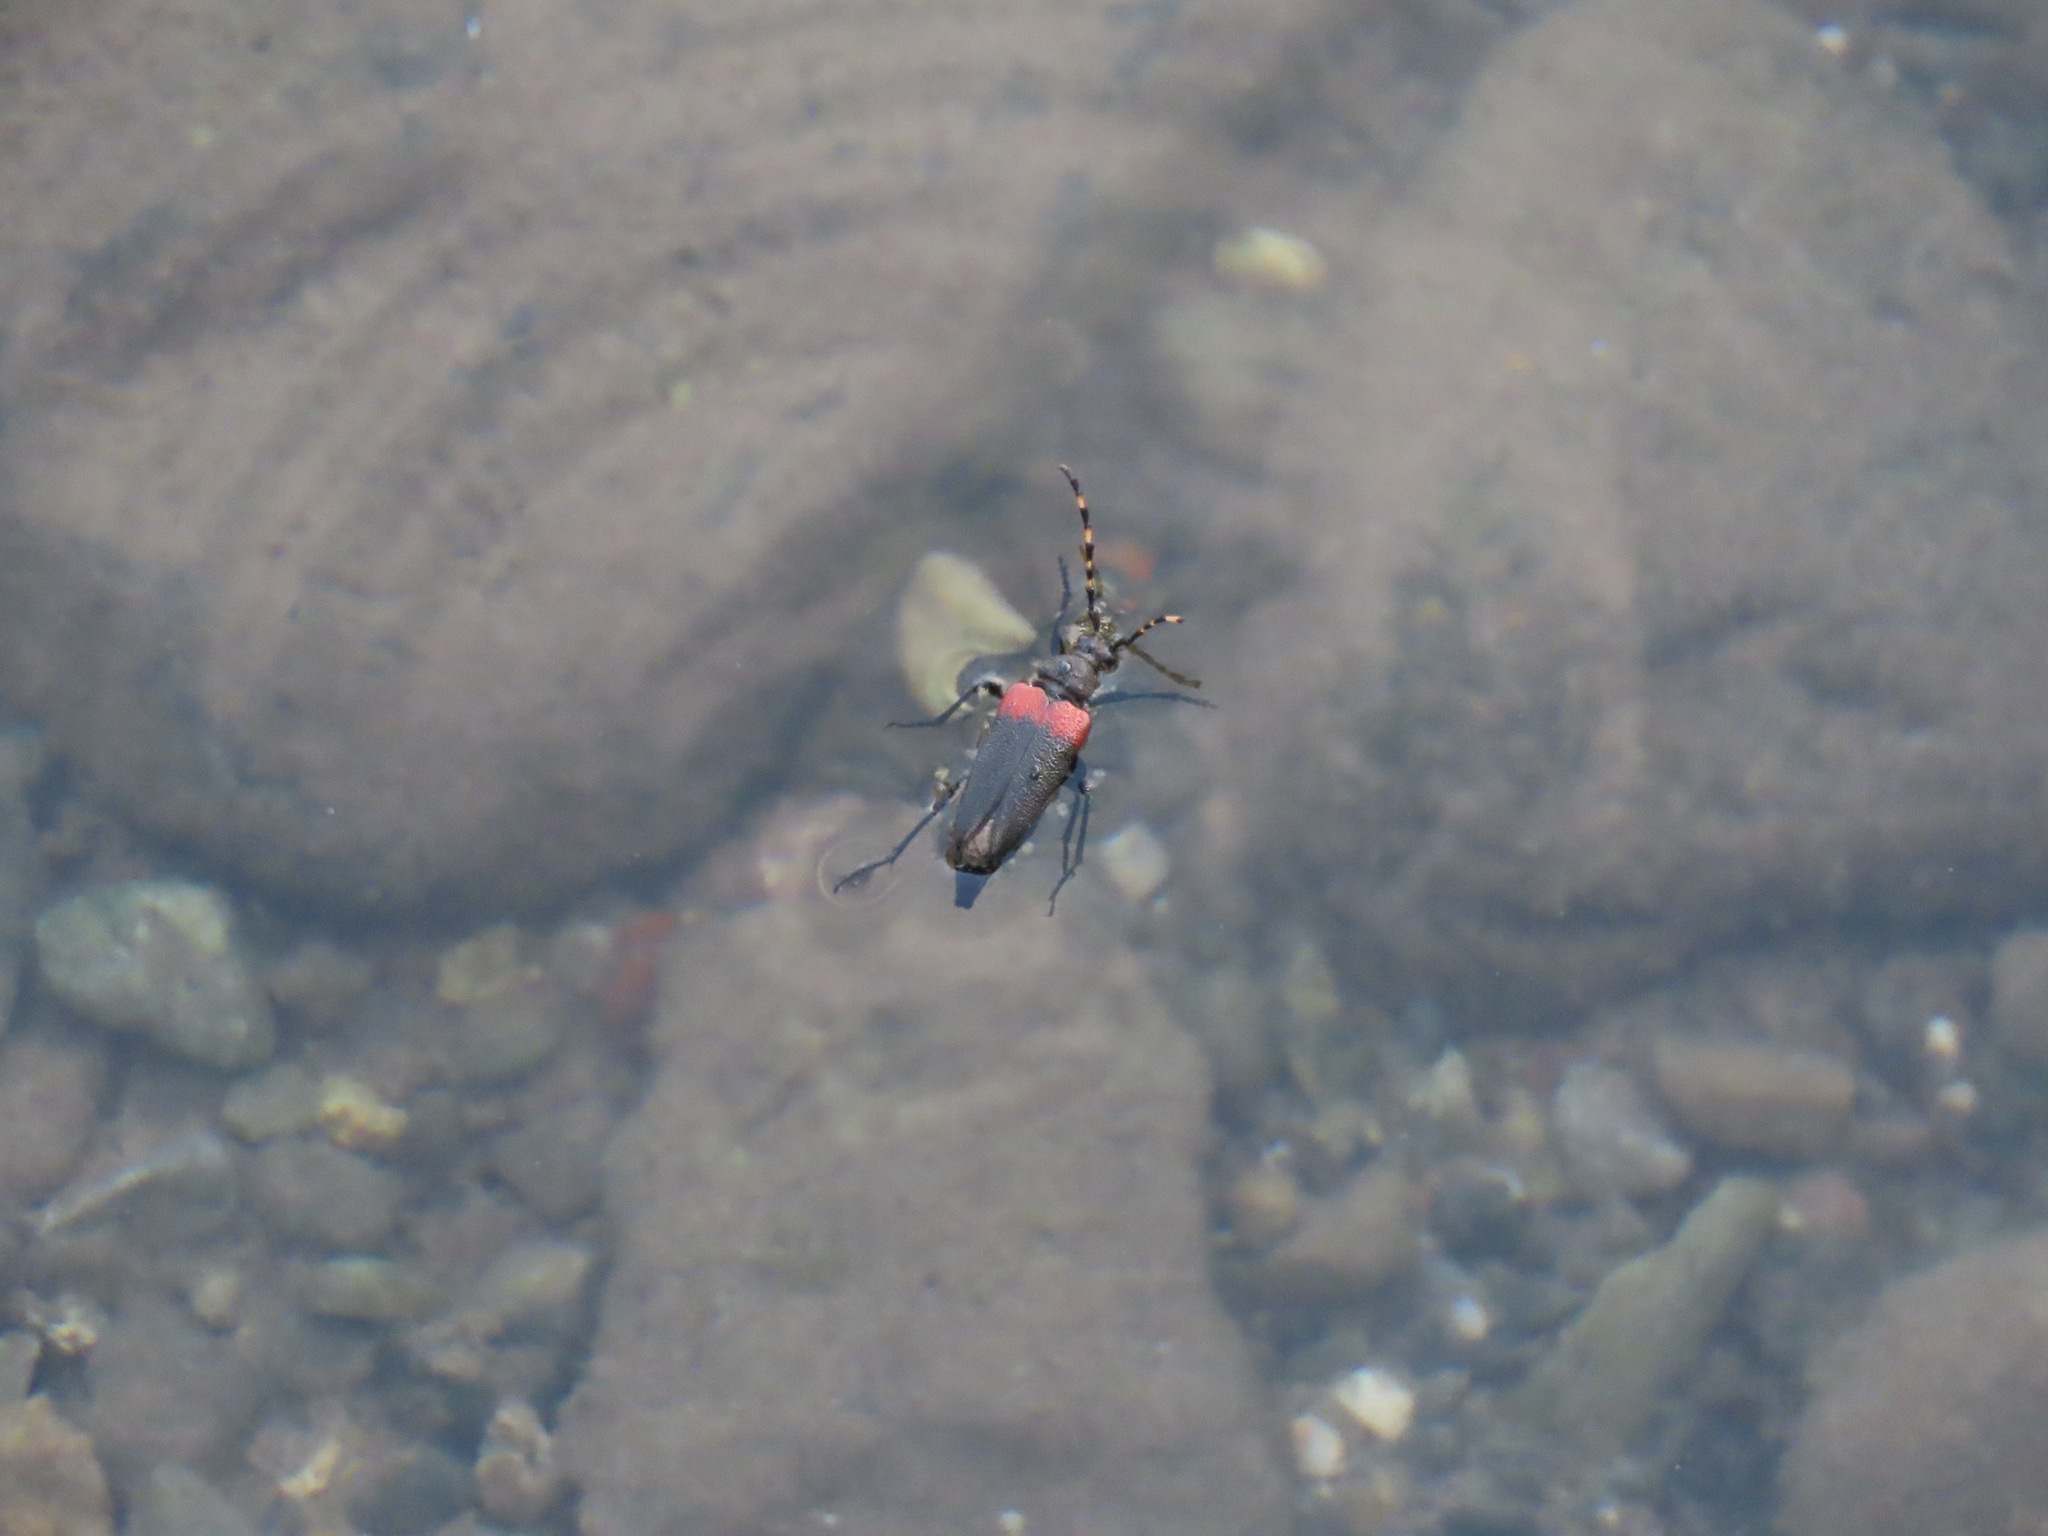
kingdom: Animalia
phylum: Arthropoda
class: Insecta
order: Coleoptera
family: Cerambycidae
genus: Stictoleptura
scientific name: Stictoleptura canadensis
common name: Red-shouldered pine borer
